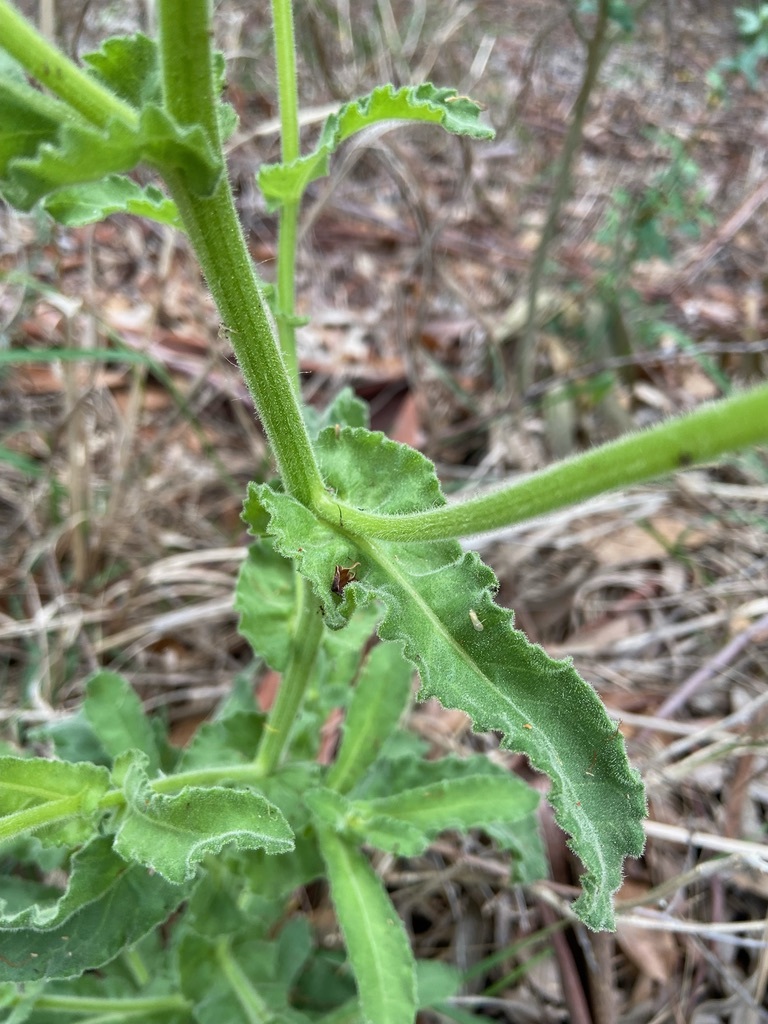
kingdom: Plantae
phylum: Tracheophyta
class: Magnoliopsida
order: Asterales
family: Asteraceae
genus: Senecio
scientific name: Senecio selloi
